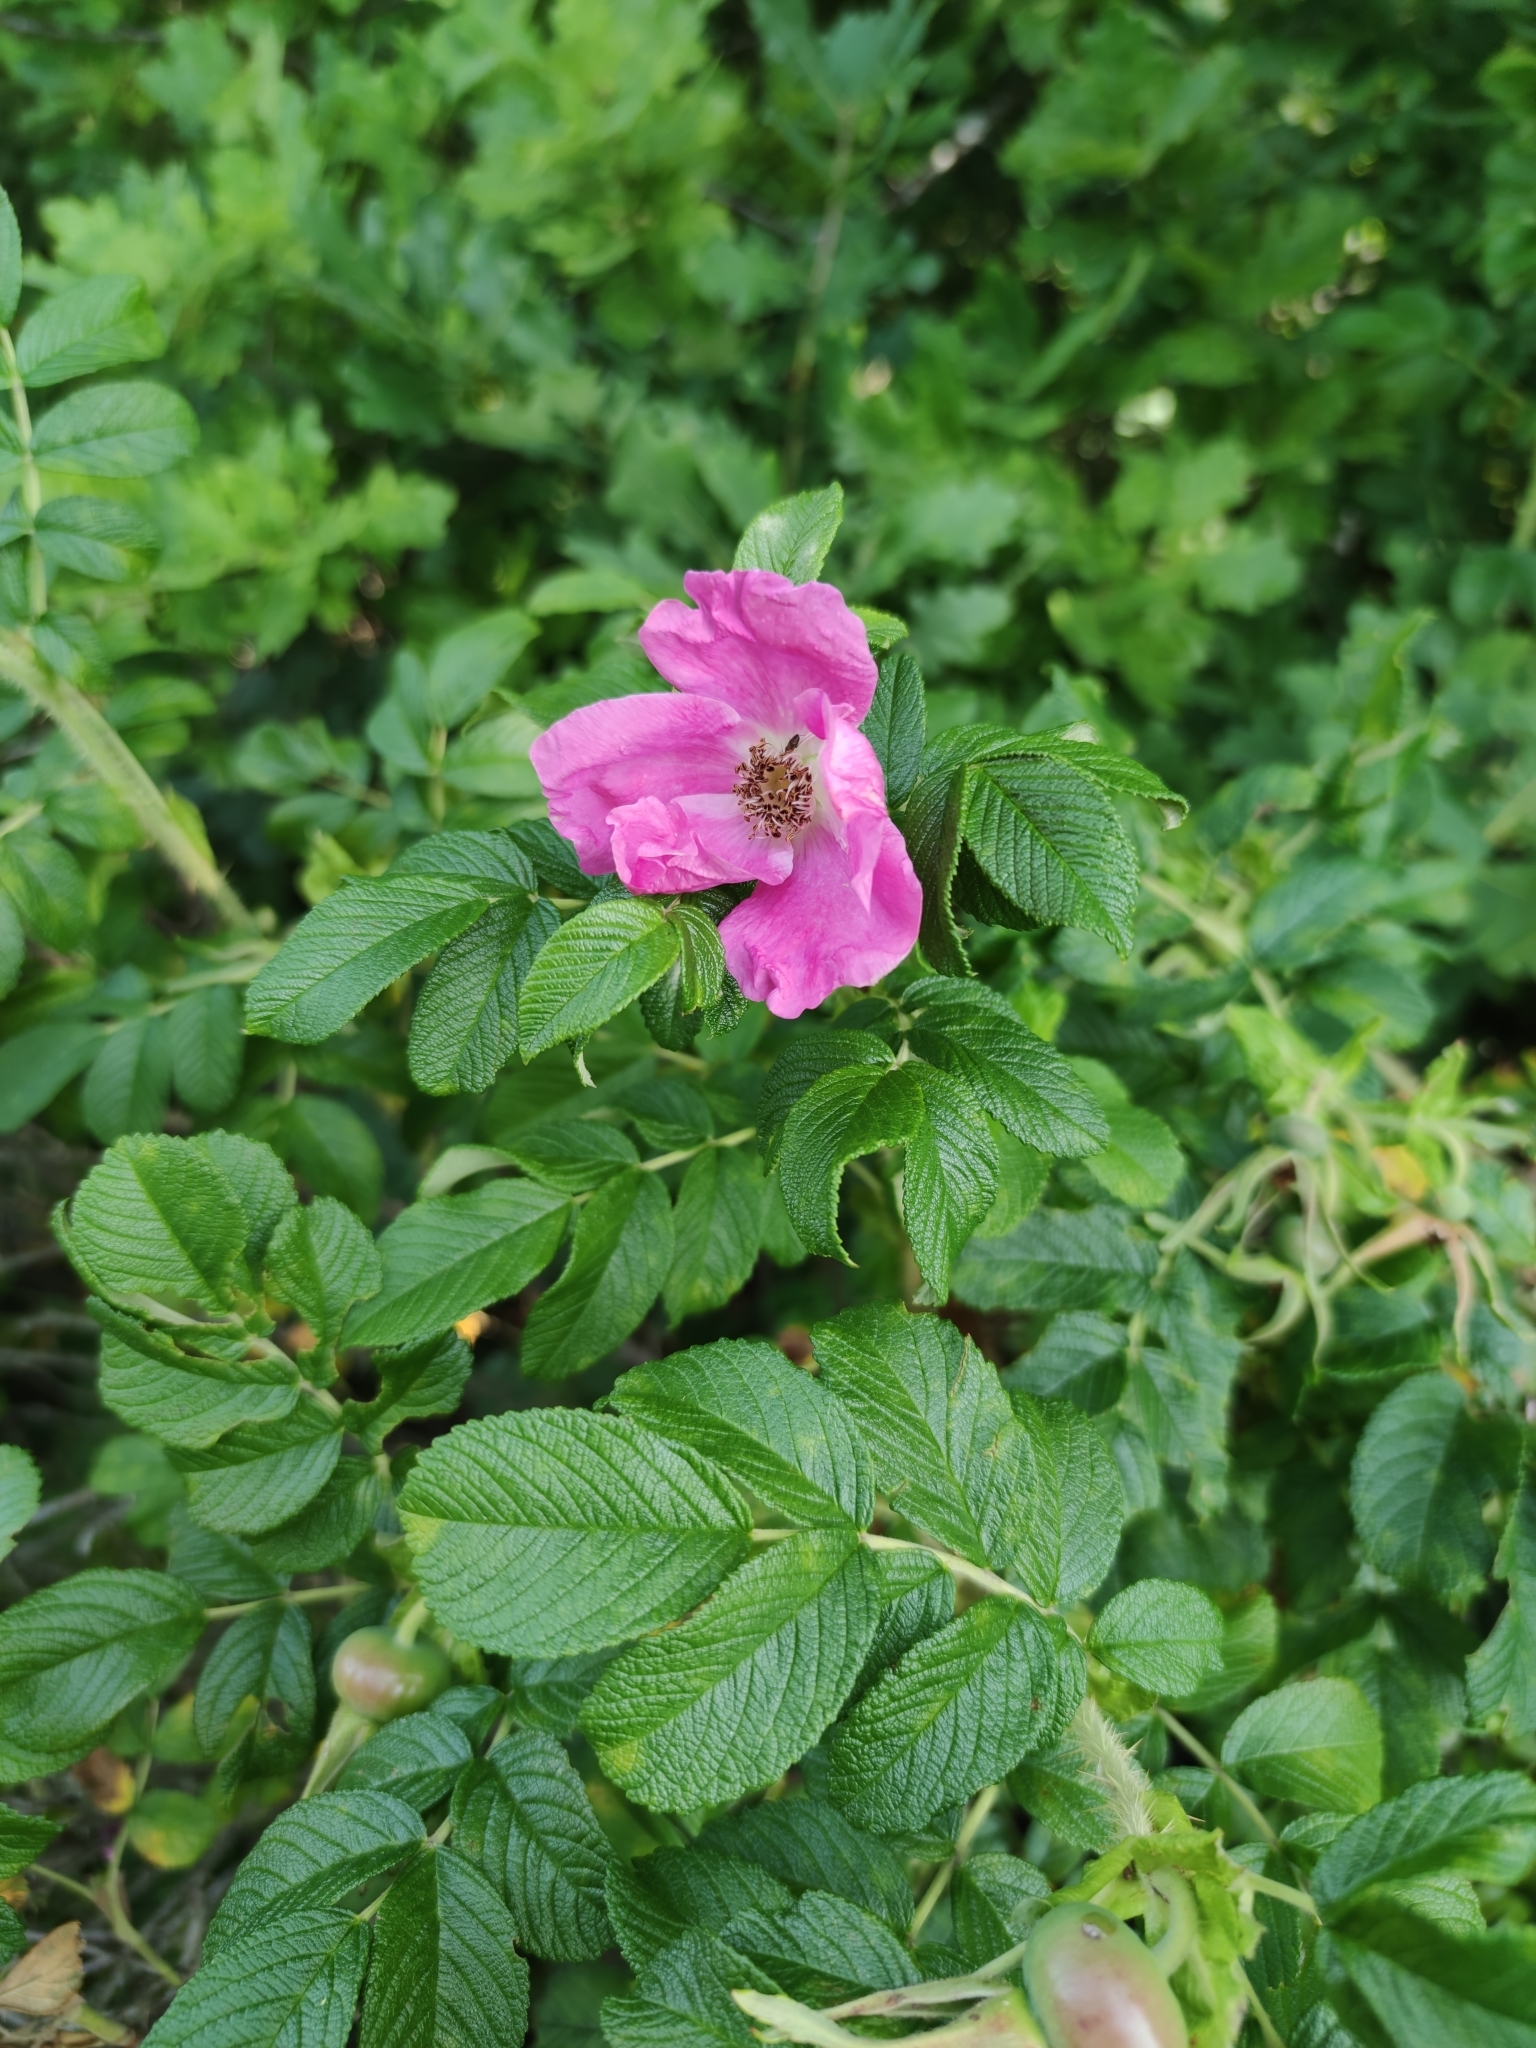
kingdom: Plantae
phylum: Tracheophyta
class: Magnoliopsida
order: Rosales
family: Rosaceae
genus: Rosa
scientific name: Rosa rugosa
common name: Japanese rose
